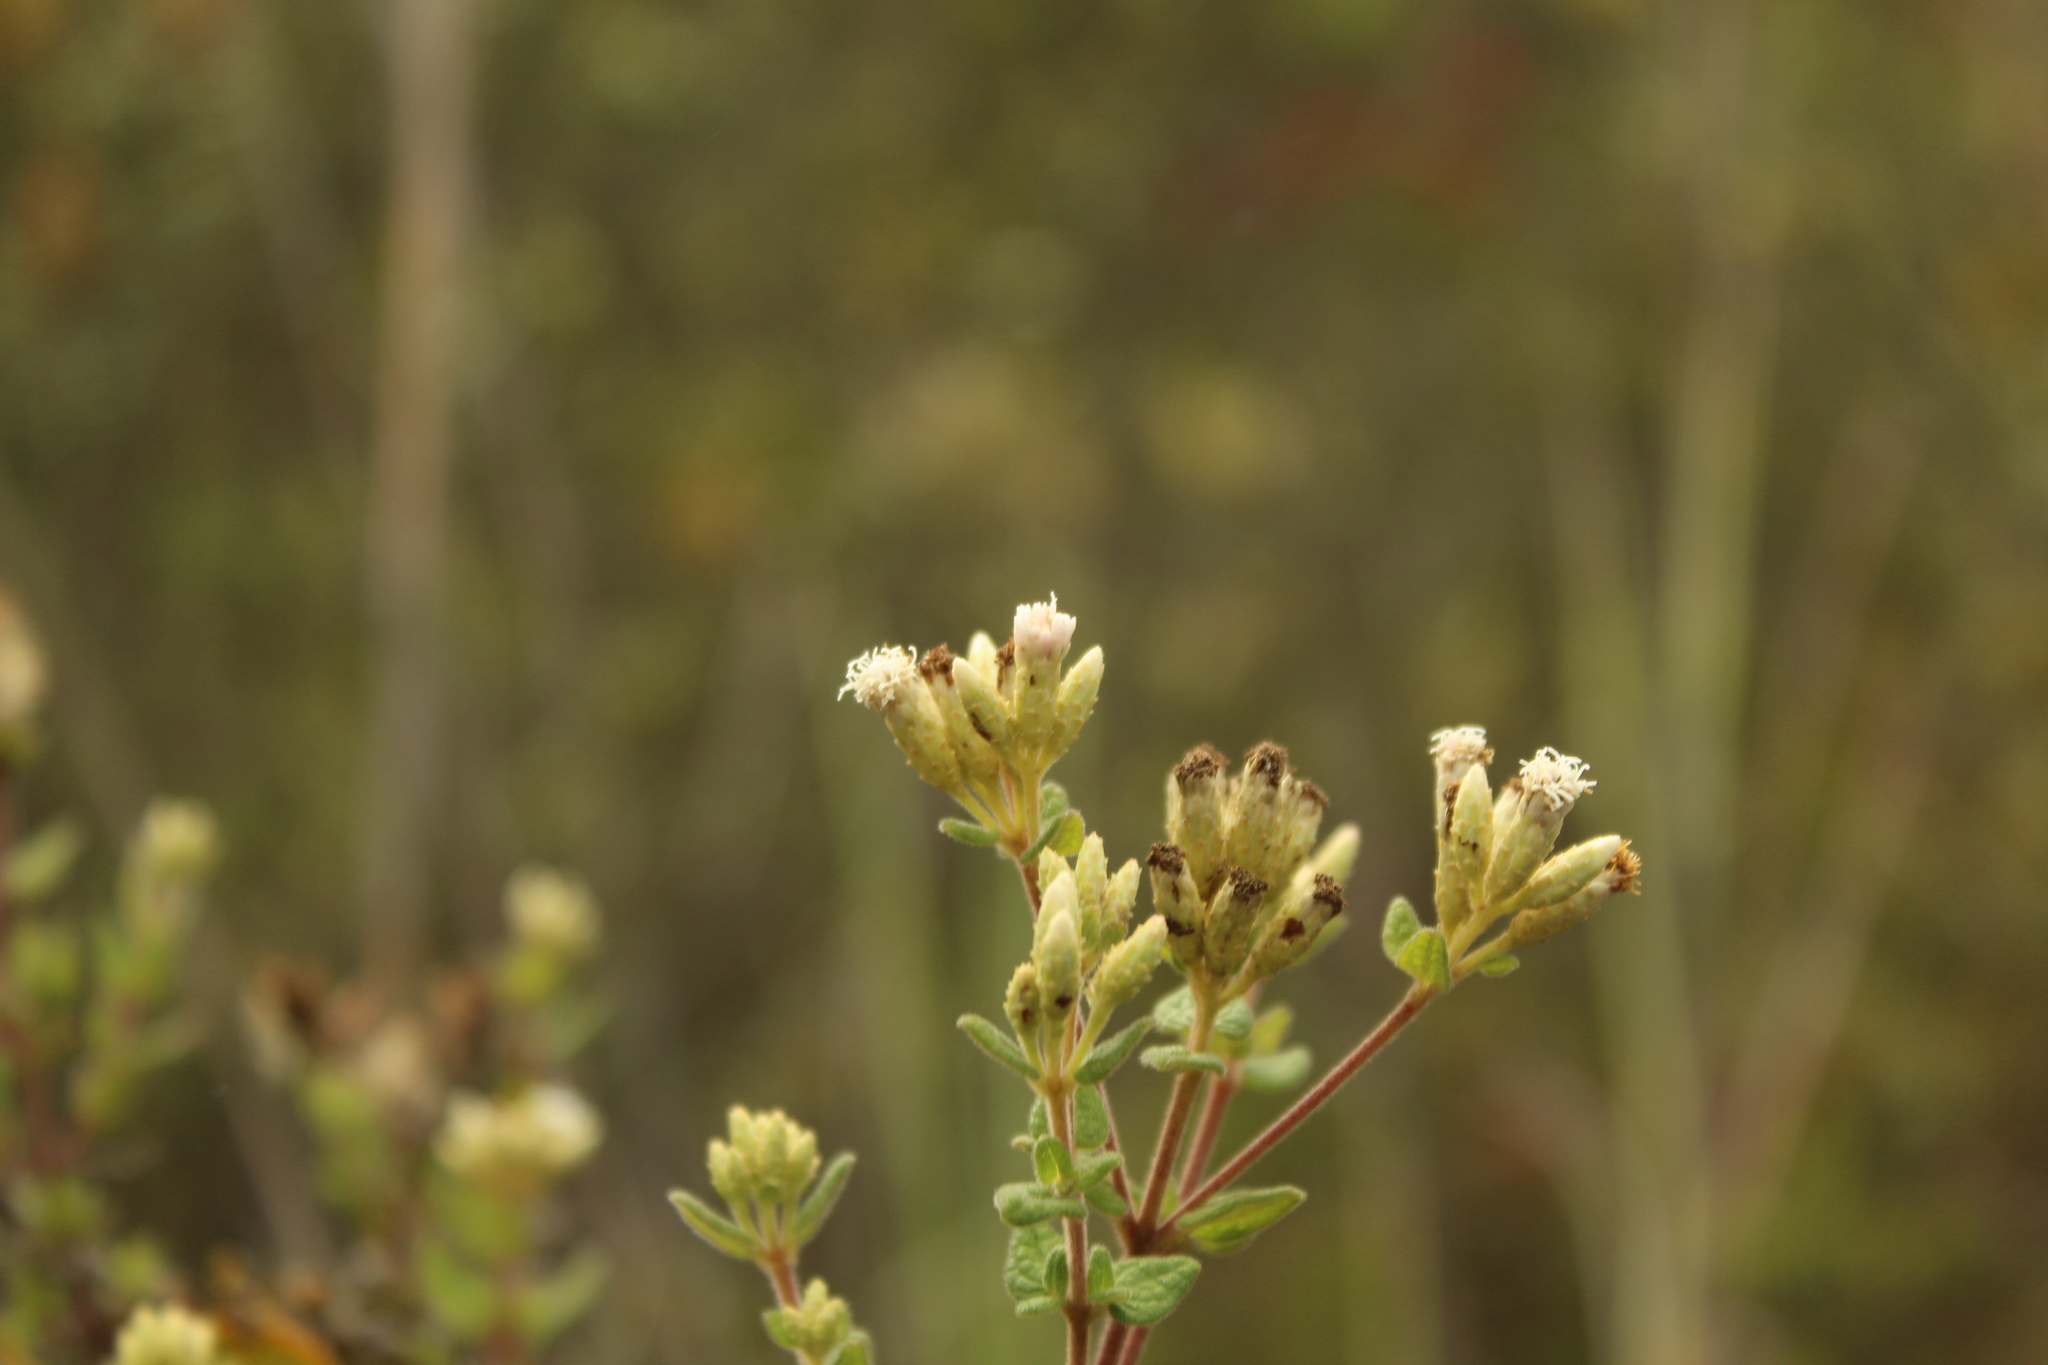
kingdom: Plantae
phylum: Tracheophyta
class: Magnoliopsida
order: Asterales
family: Asteraceae
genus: Chromolaena
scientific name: Chromolaena bullata
